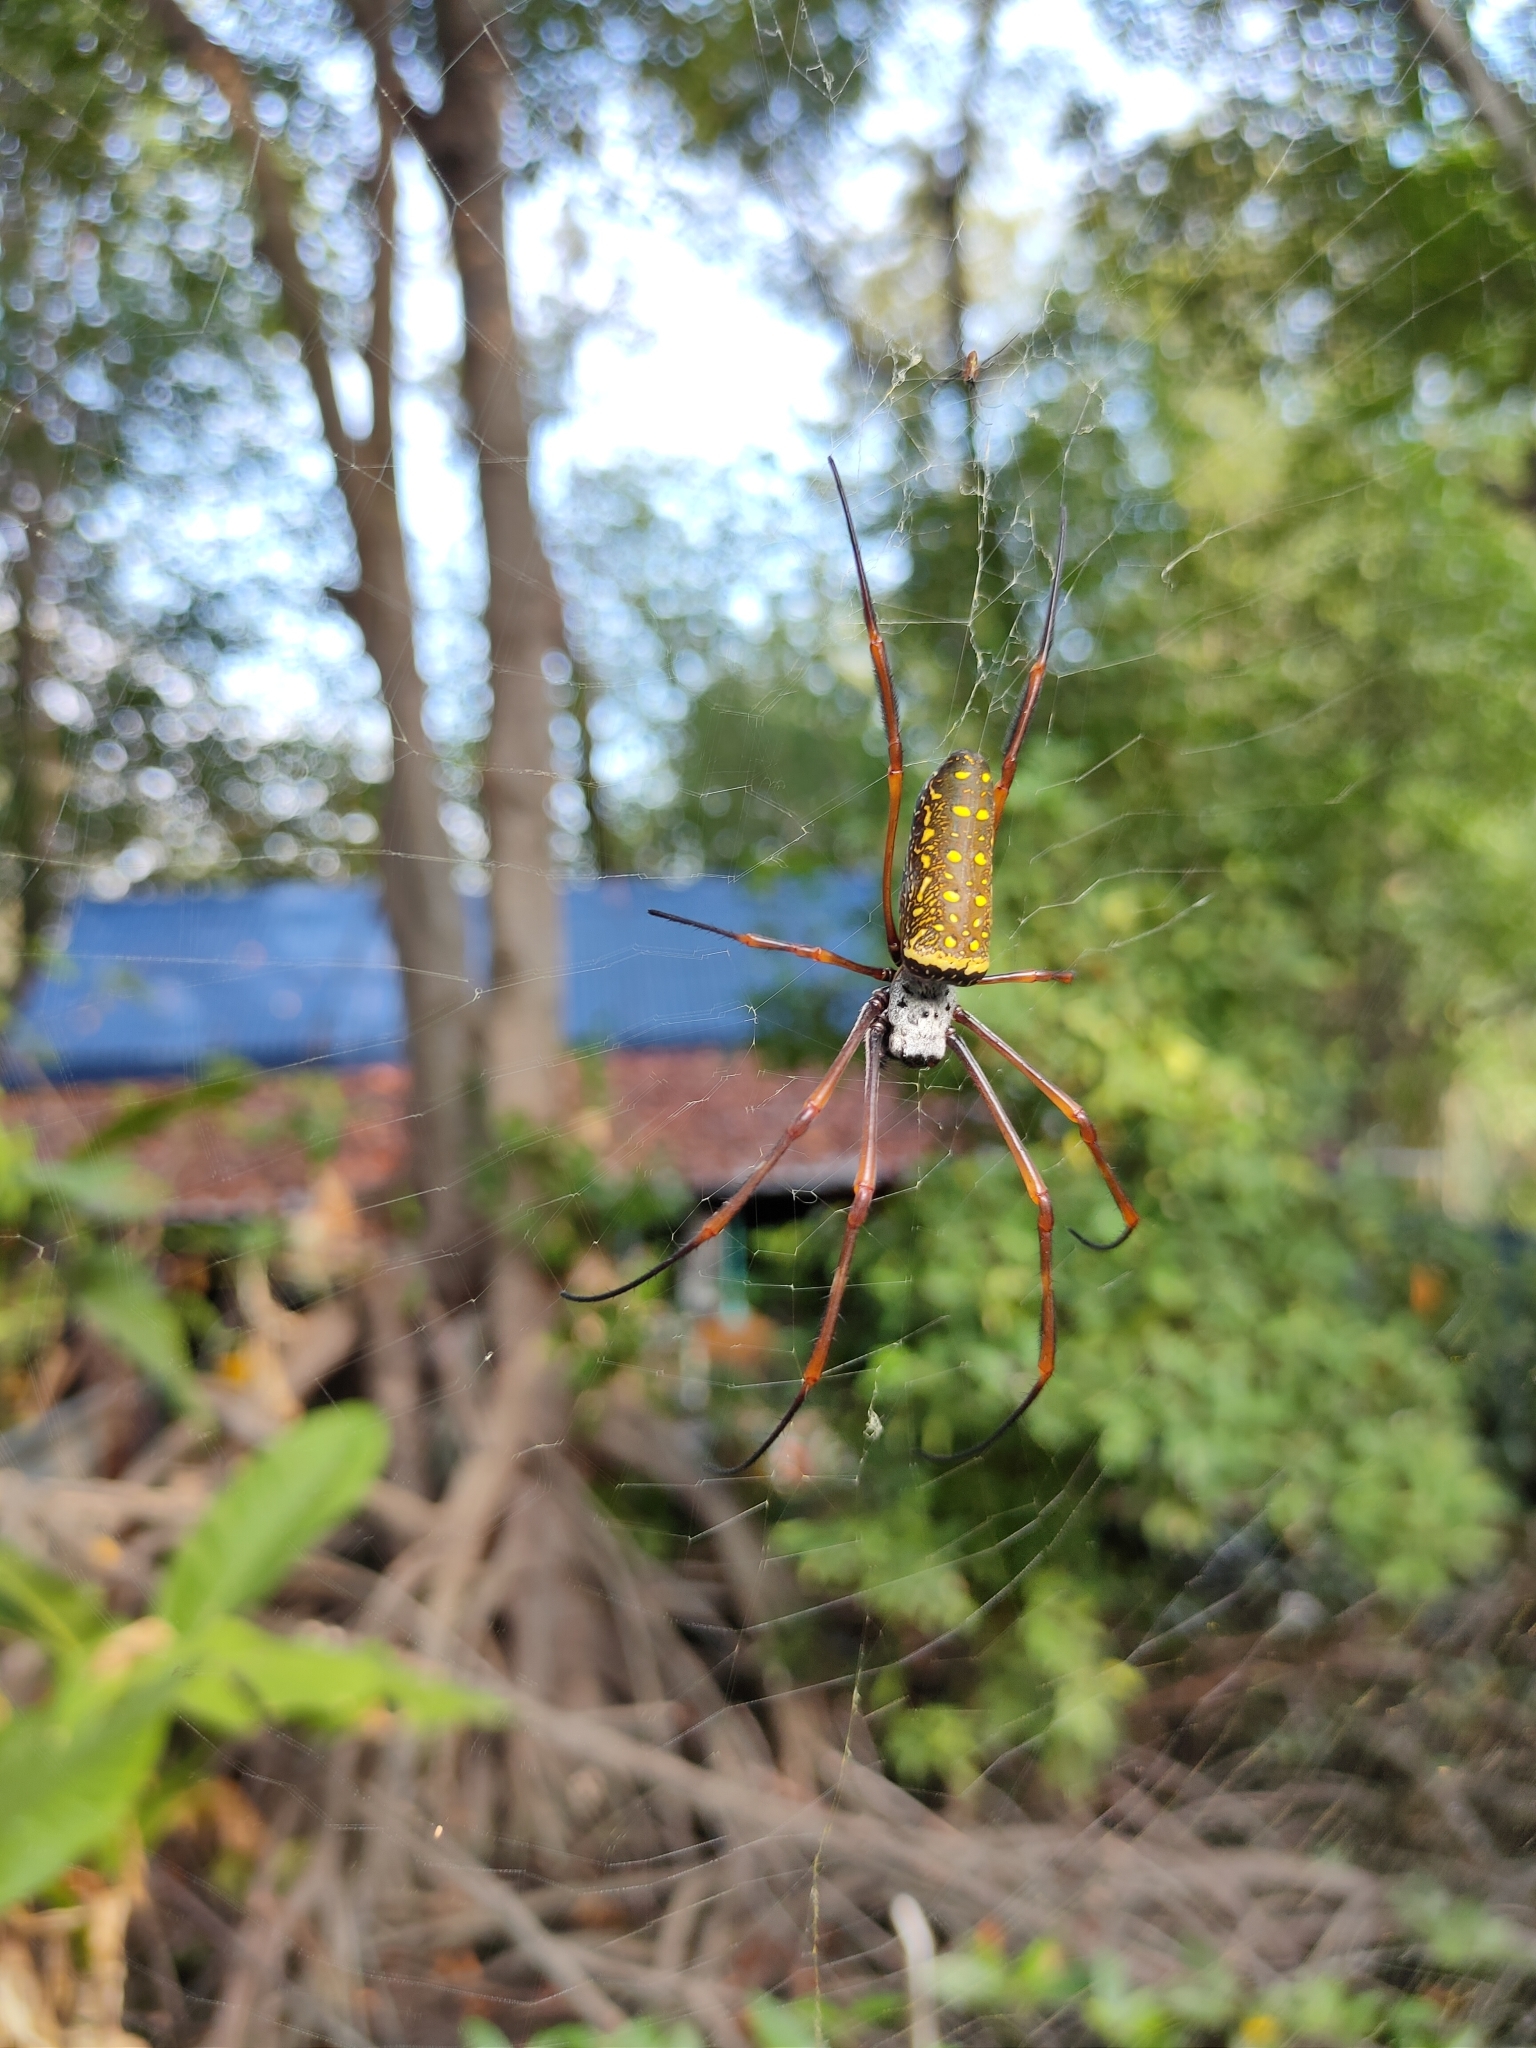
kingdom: Animalia
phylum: Arthropoda
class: Arachnida
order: Araneae
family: Araneidae
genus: Trichonephila
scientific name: Trichonephila antipodiana
